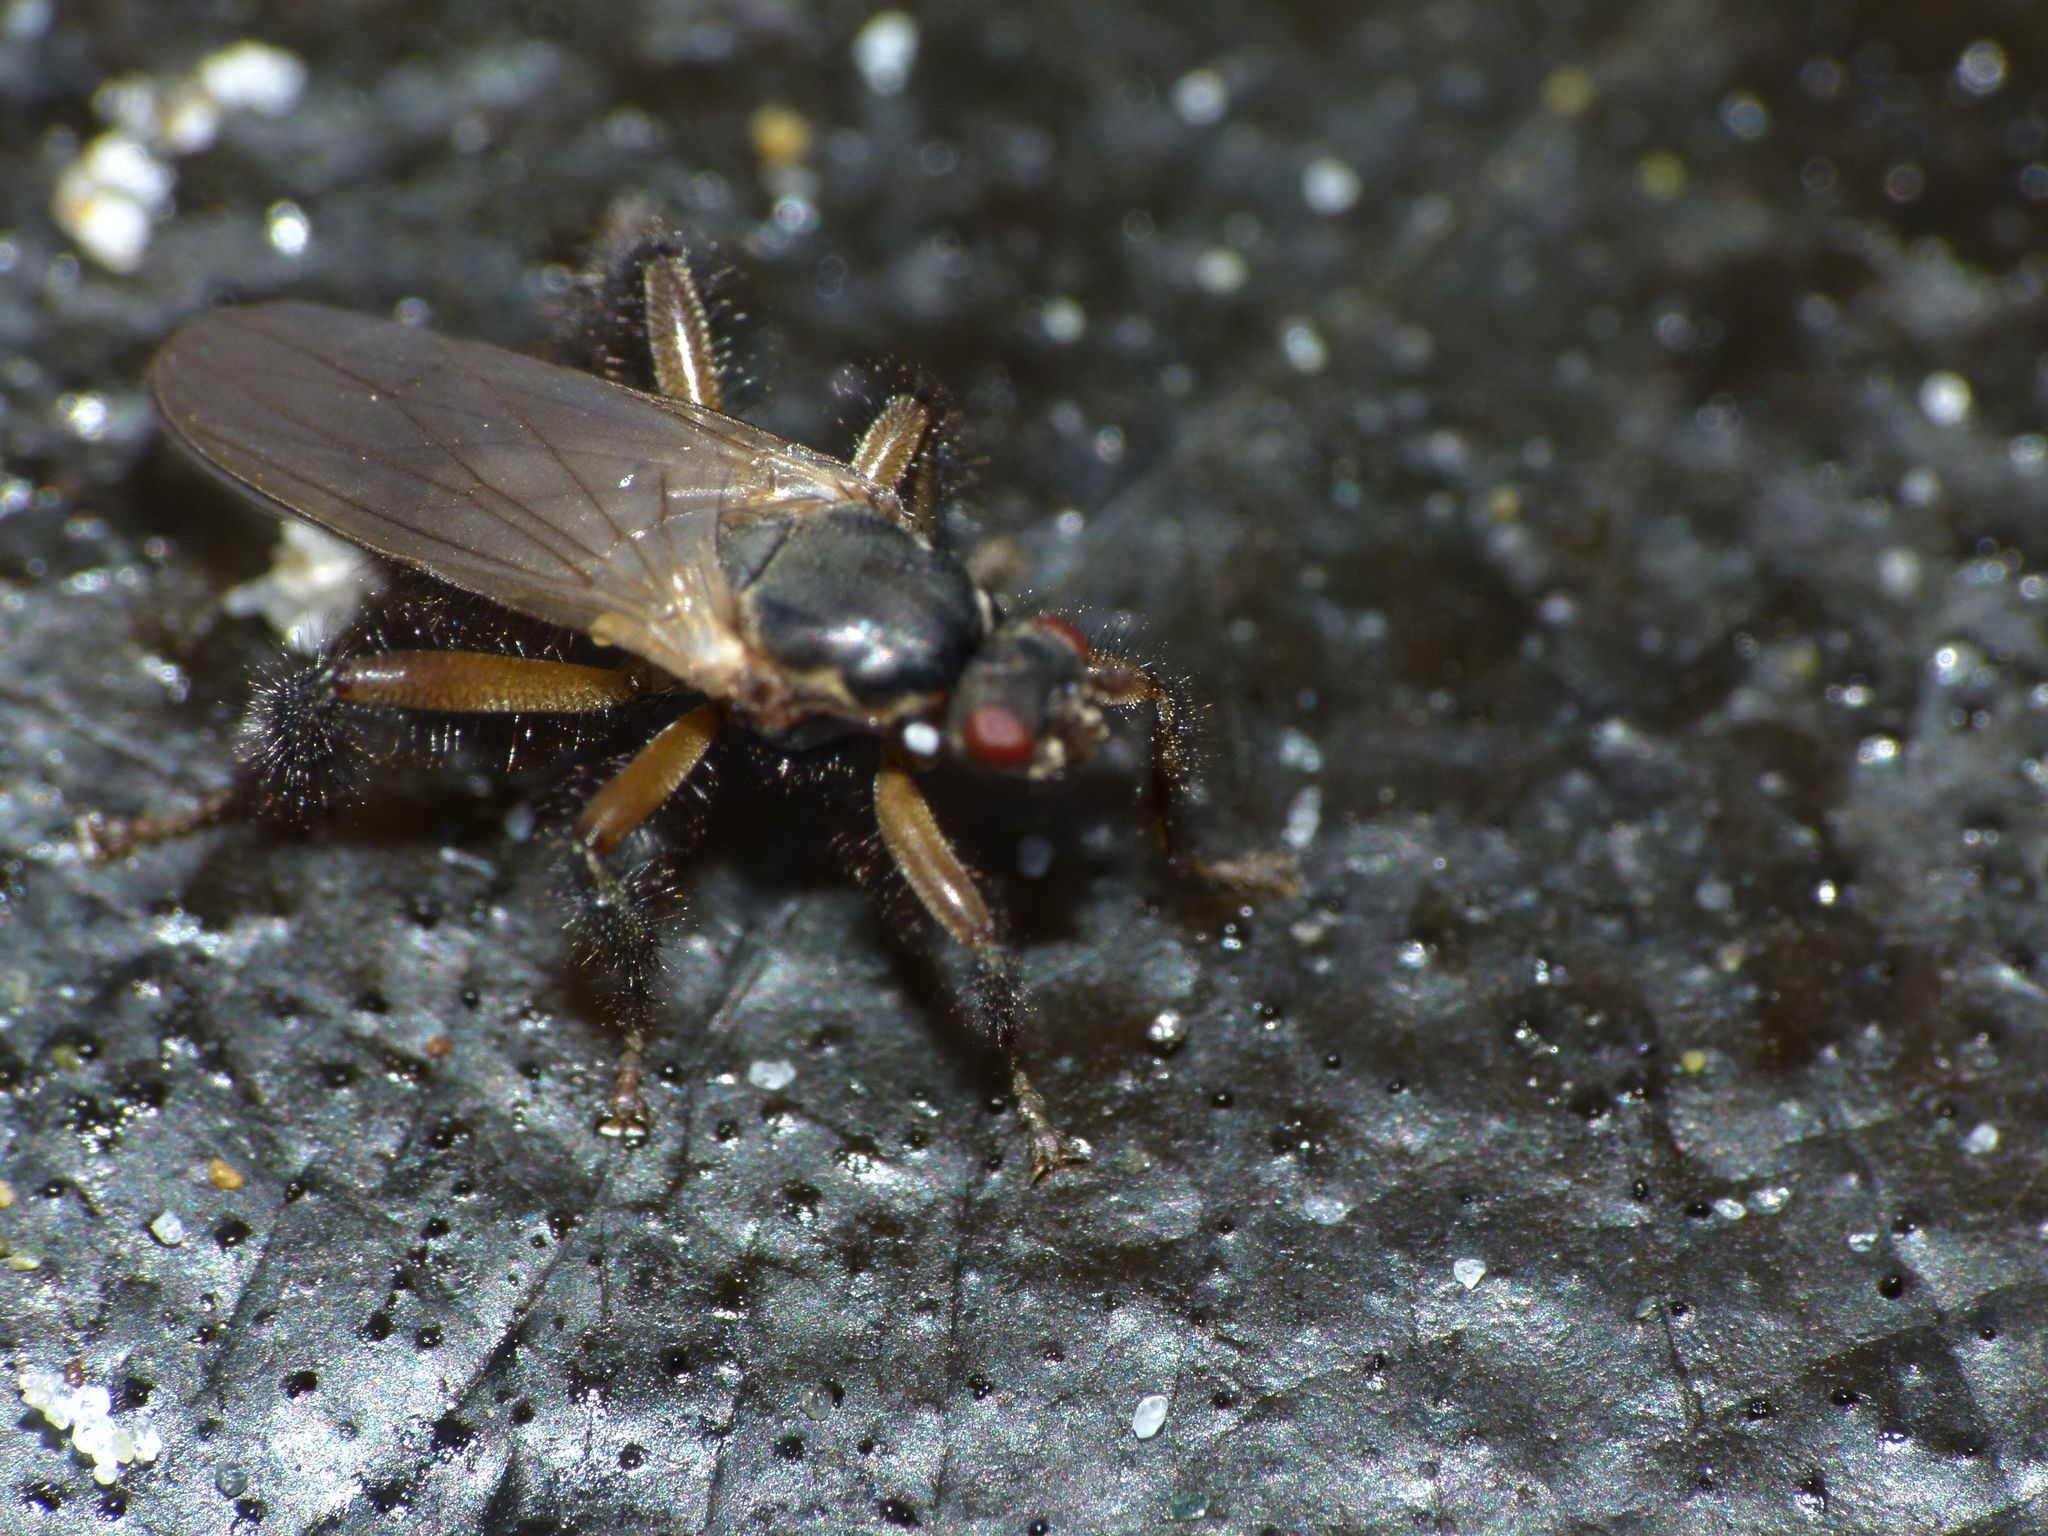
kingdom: Animalia
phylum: Arthropoda
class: Insecta
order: Diptera
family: Coelopidae
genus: Coelopella
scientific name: Coelopella curvipes
